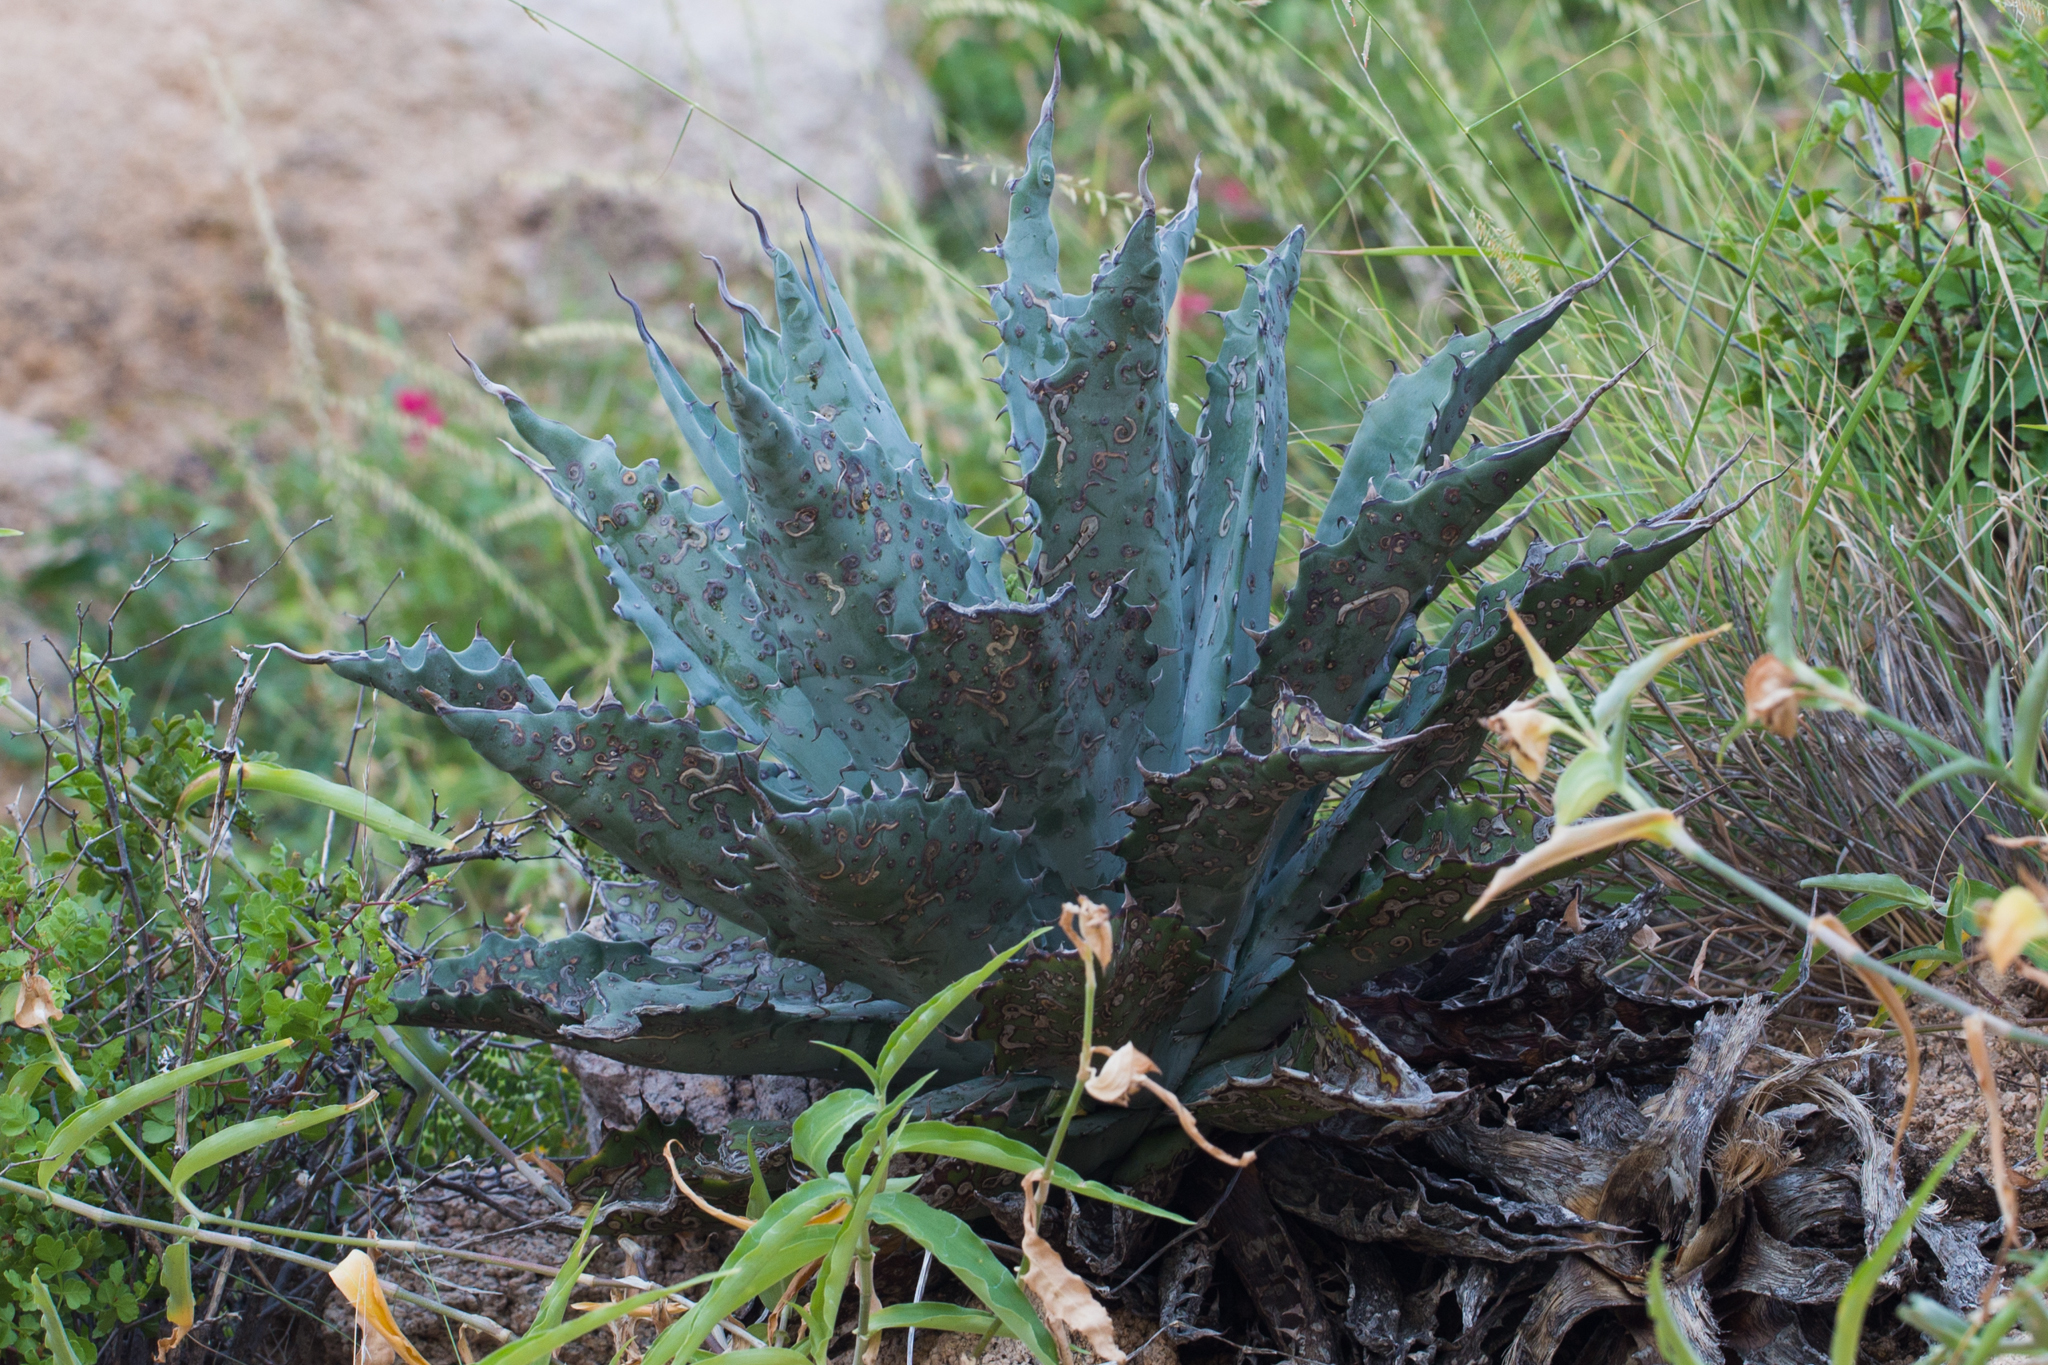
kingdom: Plantae
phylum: Tracheophyta
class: Liliopsida
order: Asparagales
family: Asparagaceae
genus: Agave
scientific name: Agave sobria
